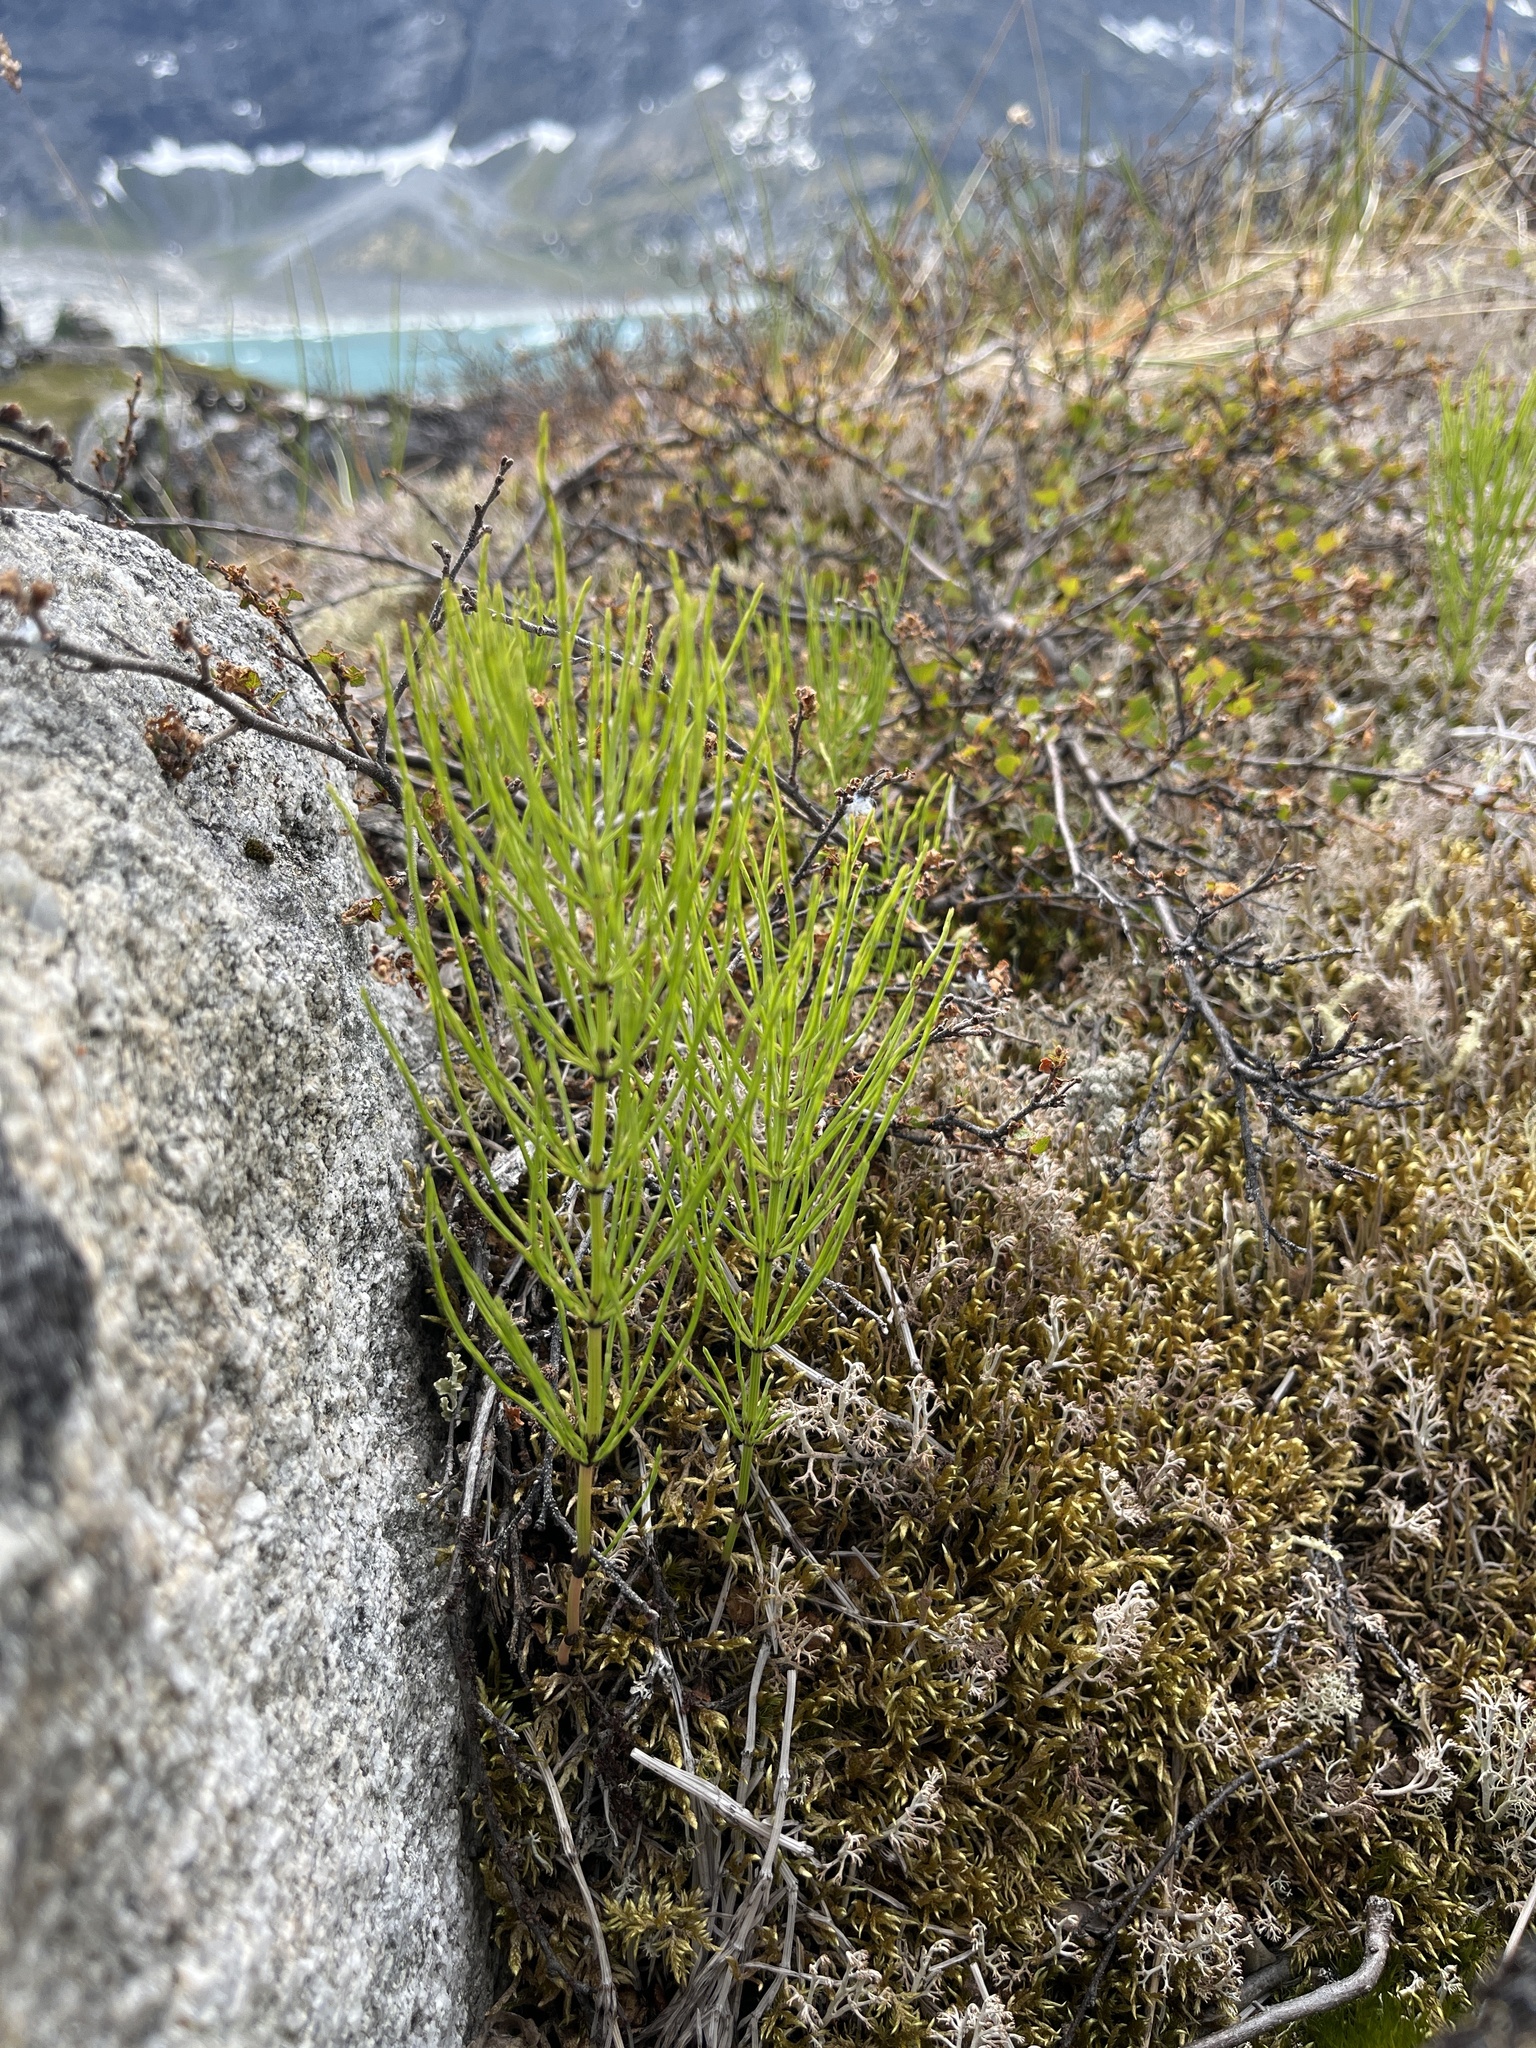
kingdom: Plantae
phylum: Tracheophyta
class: Polypodiopsida
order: Equisetales
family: Equisetaceae
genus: Equisetum
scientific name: Equisetum arvense
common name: Field horsetail
